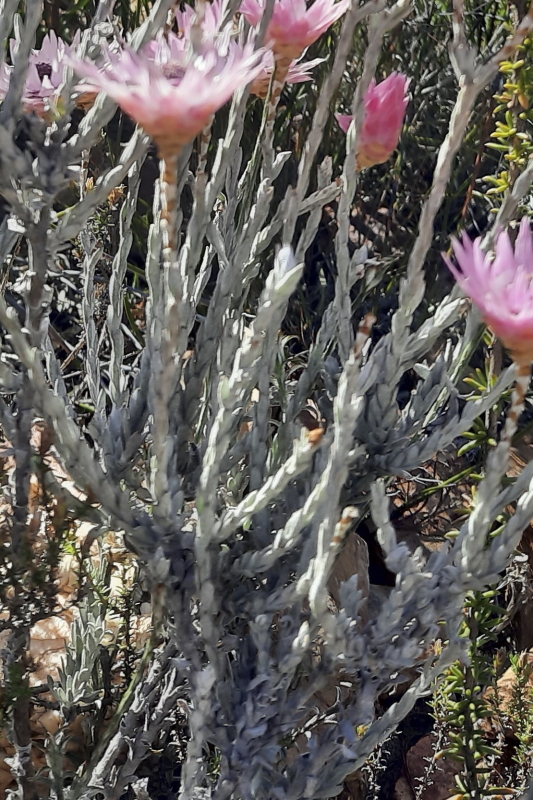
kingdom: Plantae
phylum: Tracheophyta
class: Magnoliopsida
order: Asterales
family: Asteraceae
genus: Syncarpha
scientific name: Syncarpha canescens
